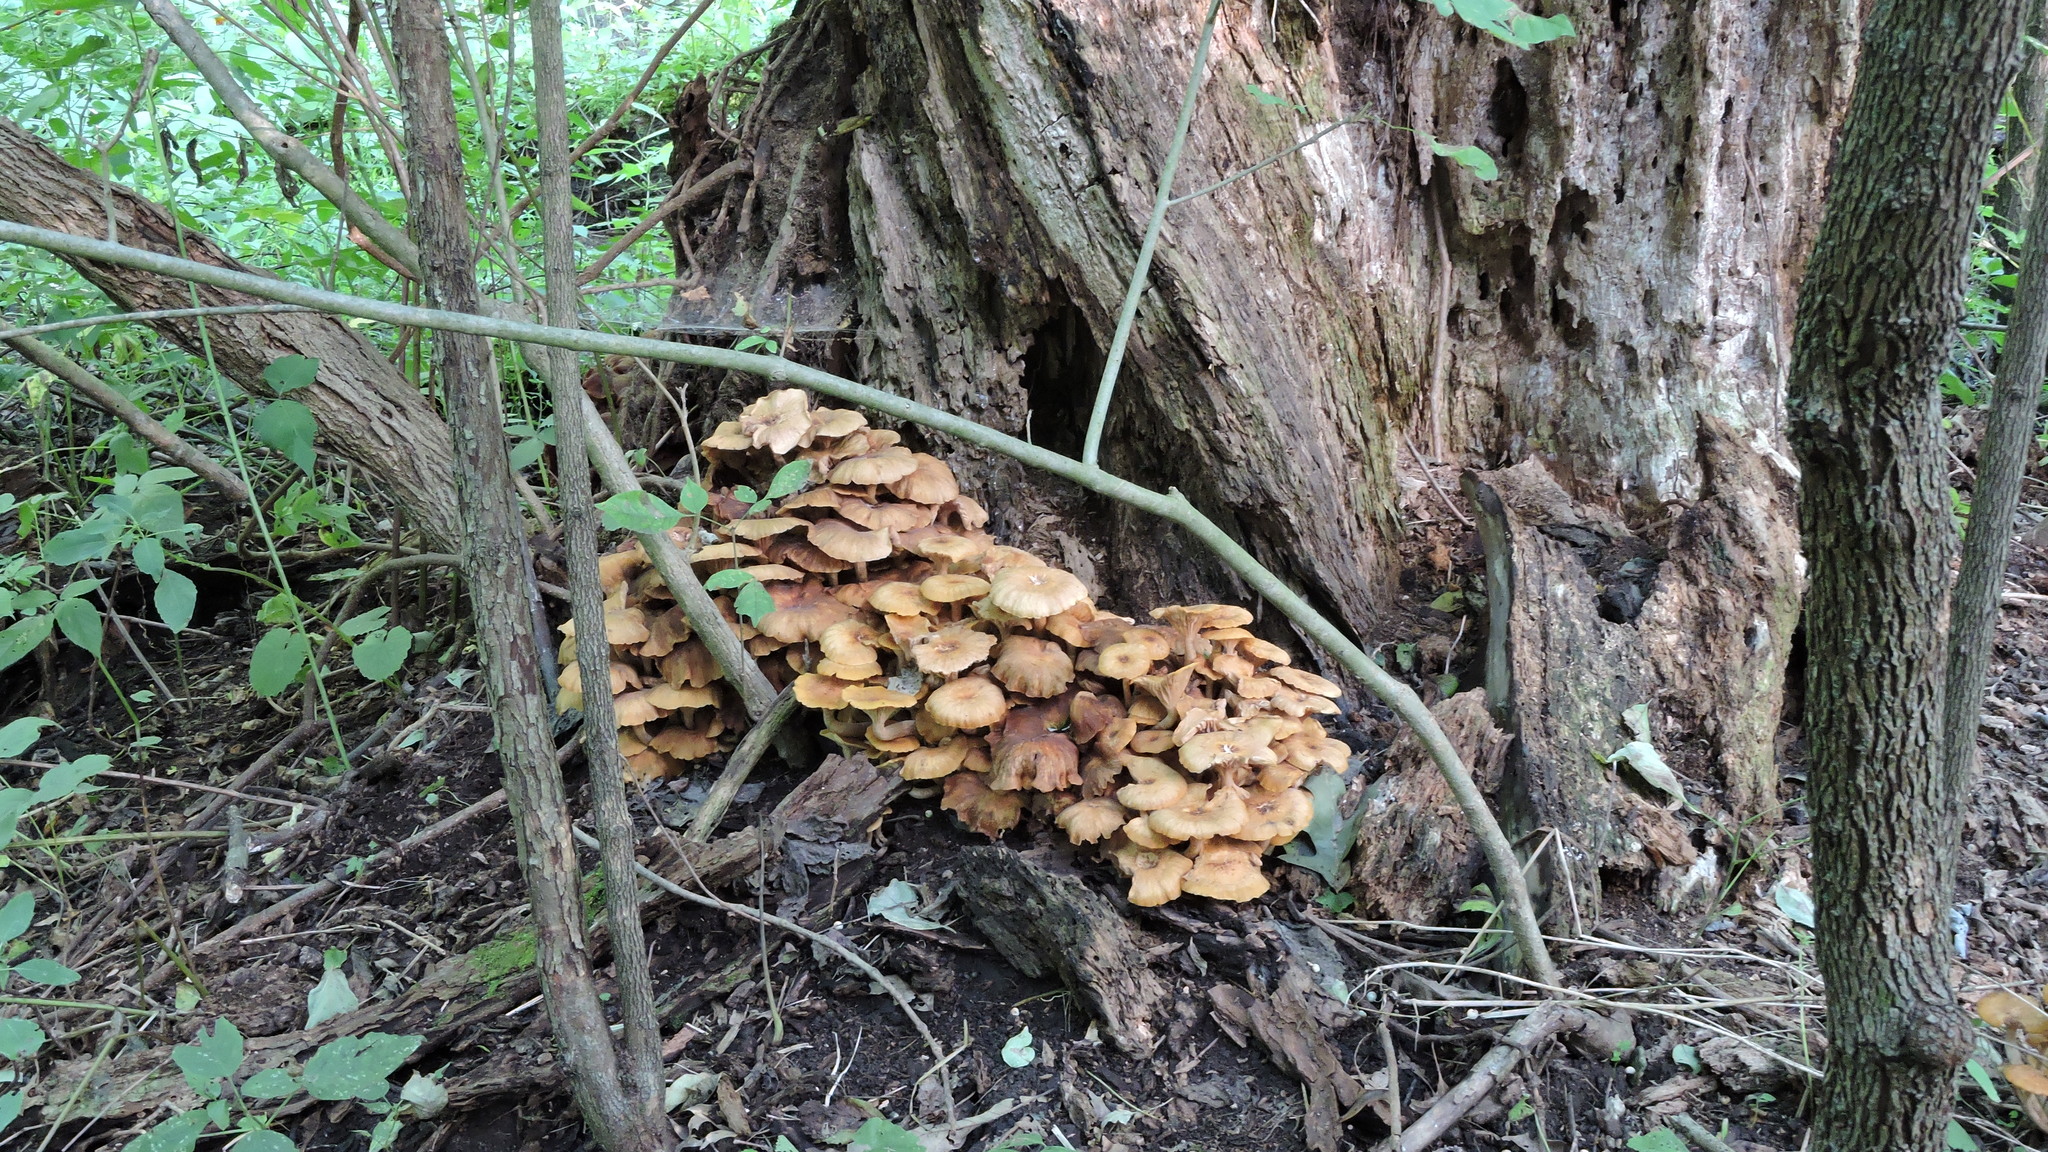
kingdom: Animalia
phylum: Chordata
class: Amphibia
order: Anura
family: Ranidae
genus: Lithobates
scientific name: Lithobates catesbeianus
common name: American bullfrog
